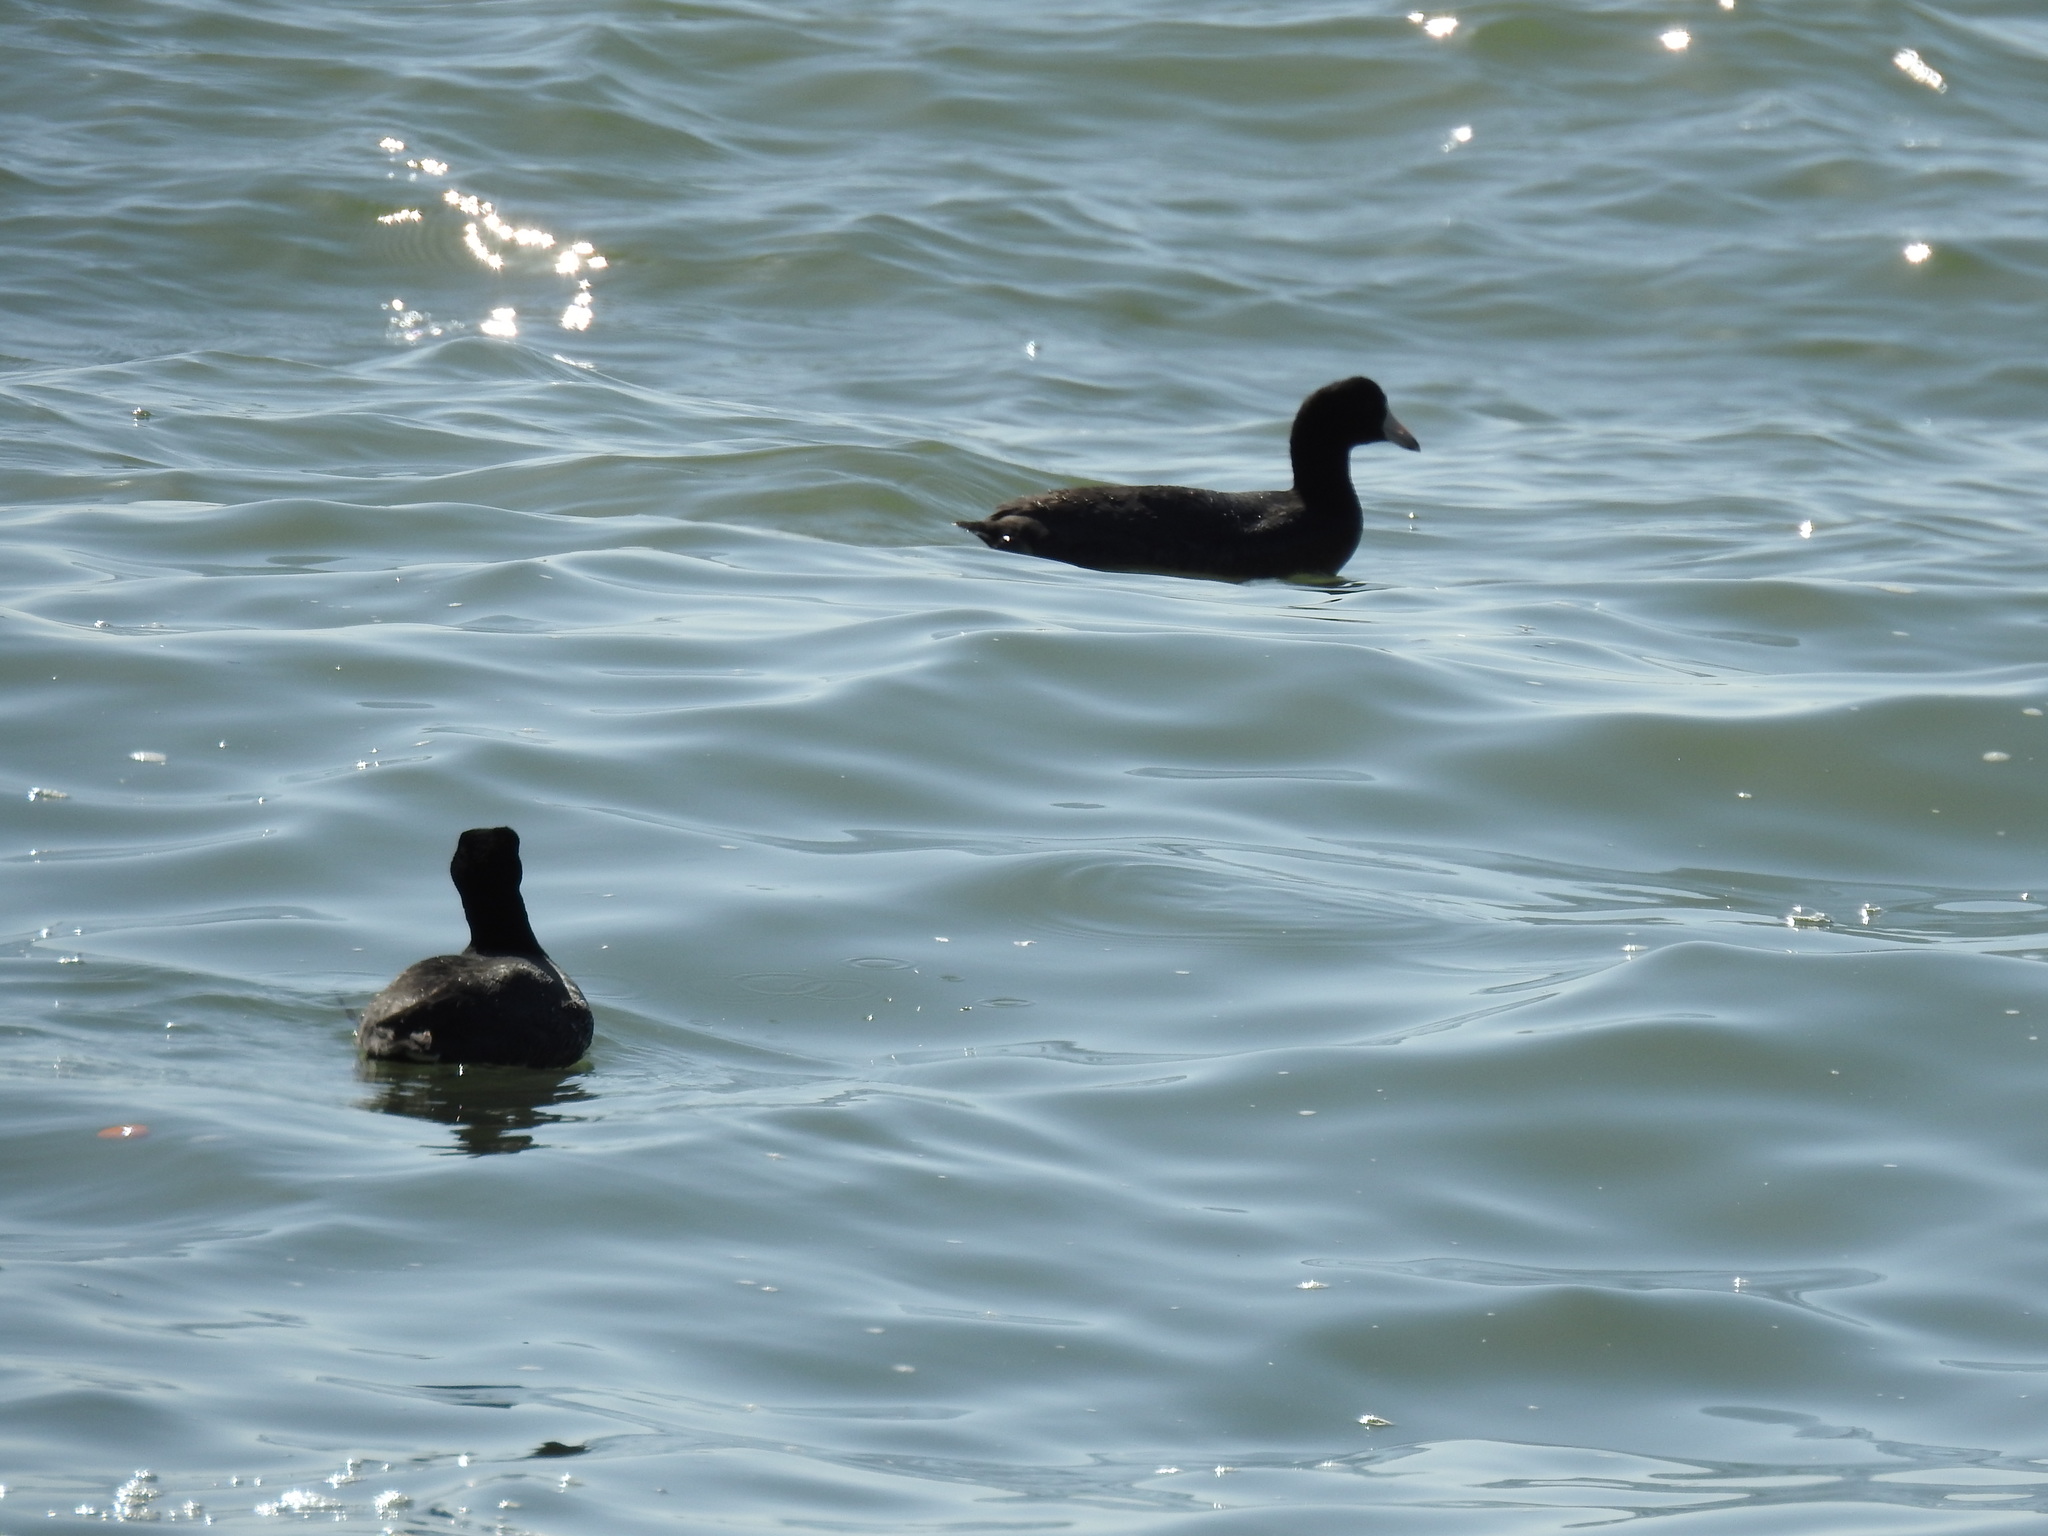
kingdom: Animalia
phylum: Chordata
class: Aves
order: Gruiformes
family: Rallidae
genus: Fulica
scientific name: Fulica americana
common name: American coot
